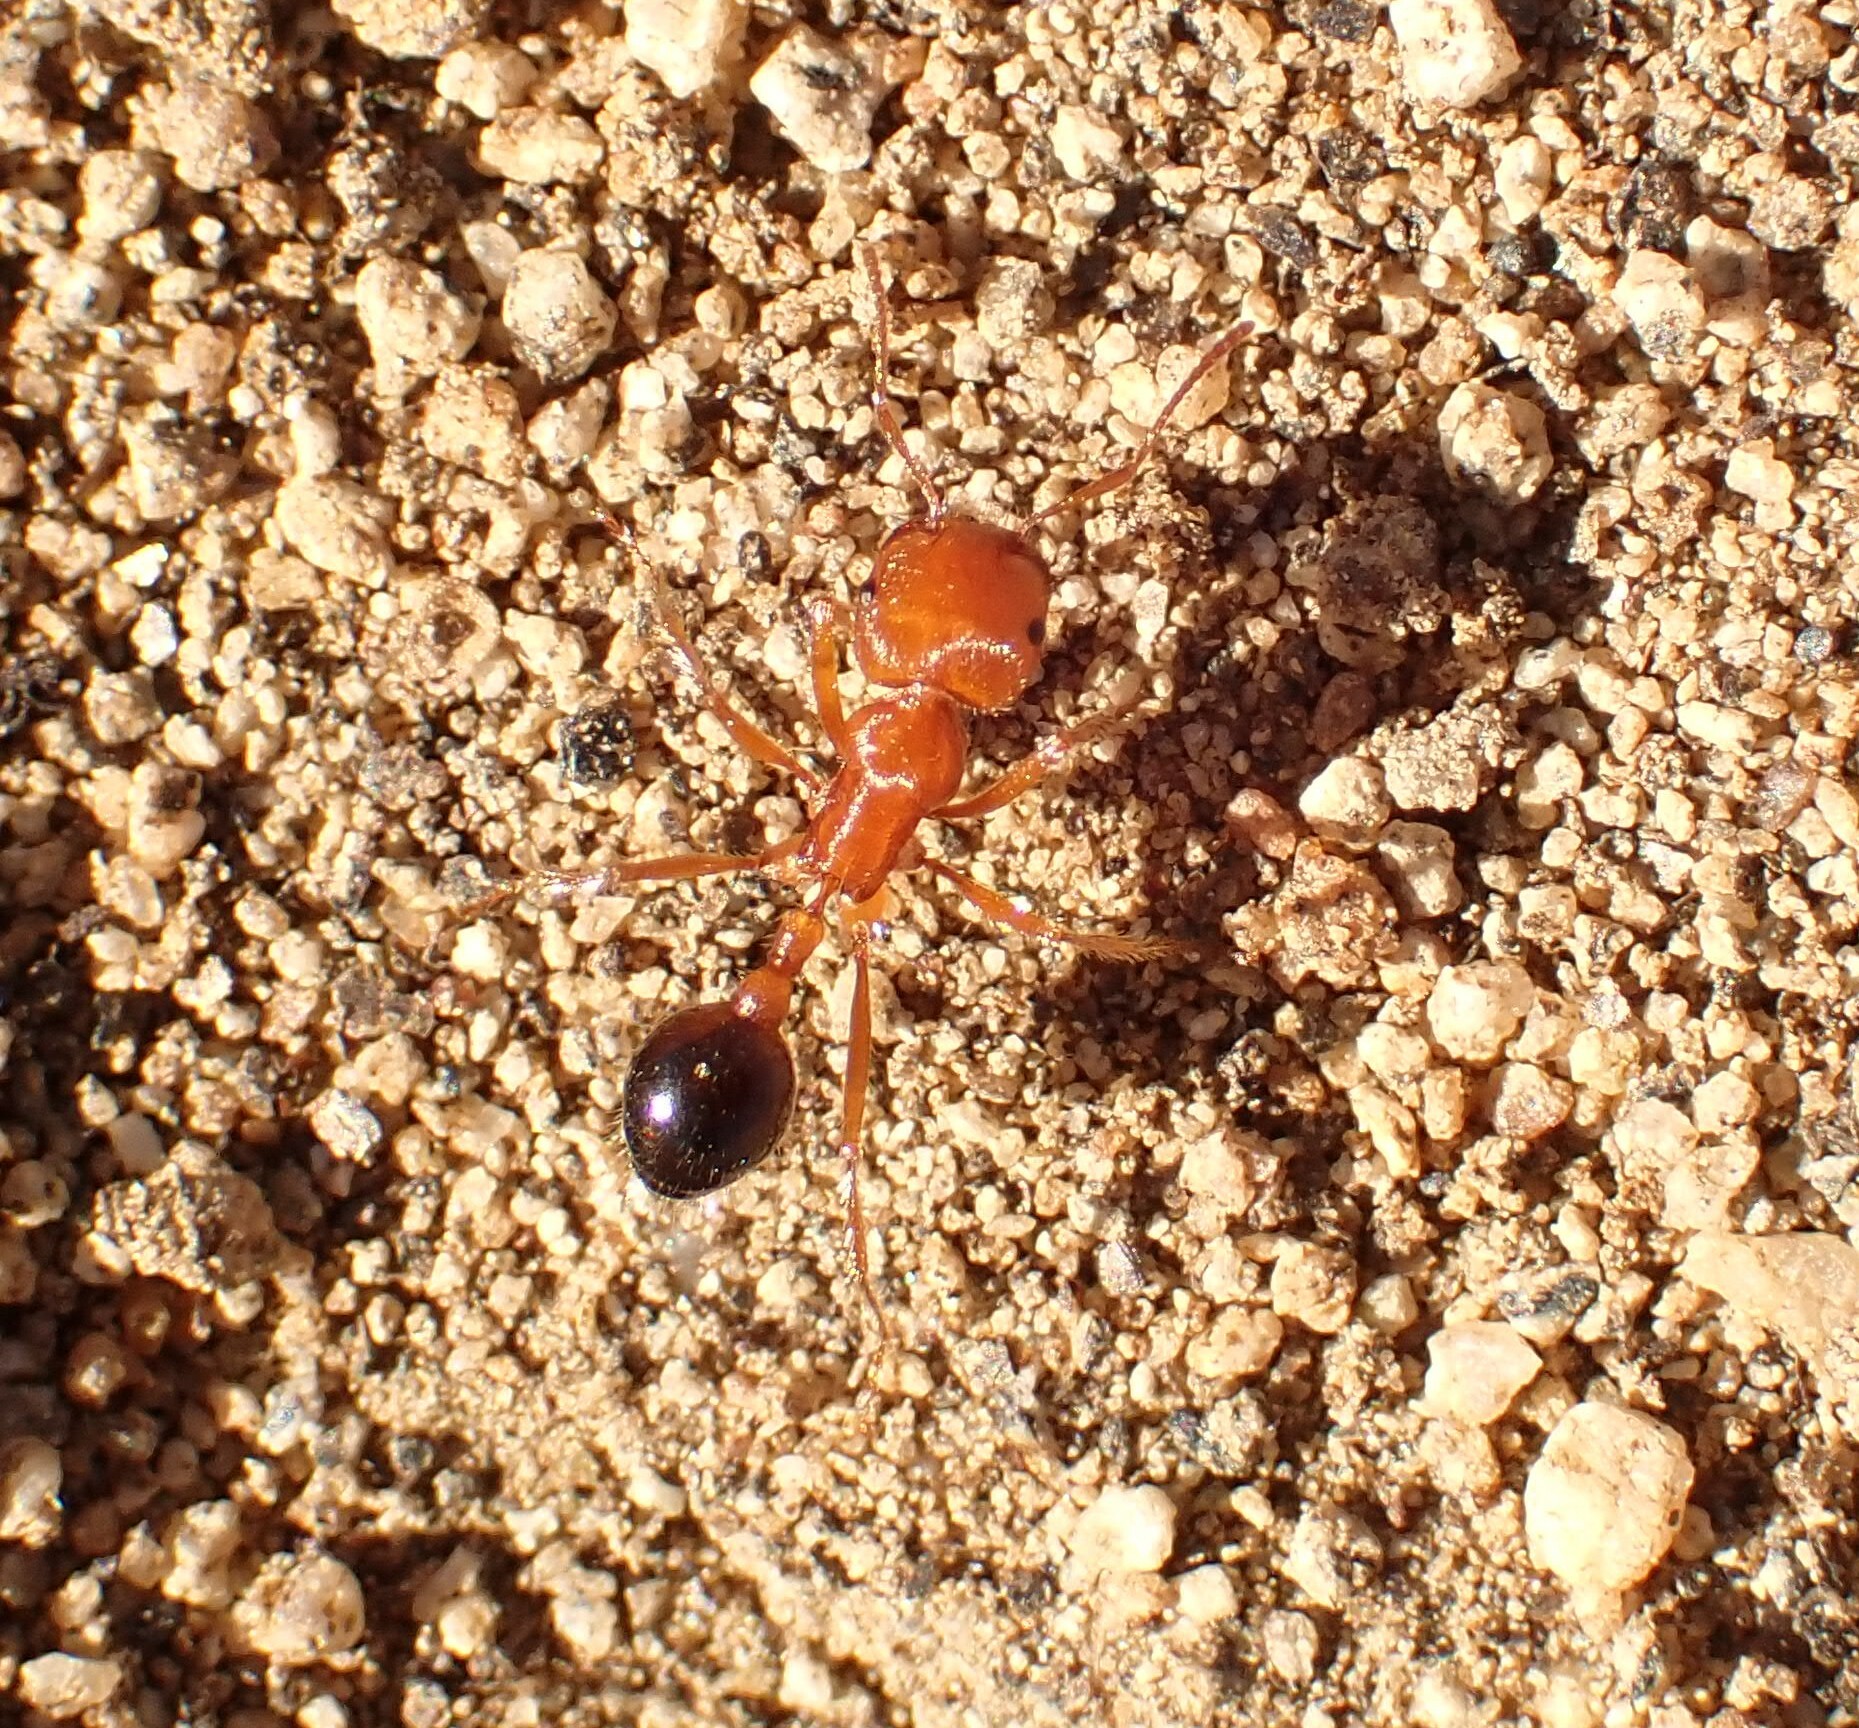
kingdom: Animalia
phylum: Arthropoda
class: Insecta
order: Hymenoptera
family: Formicidae
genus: Pogonomyrmex
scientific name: Pogonomyrmex californicus
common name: California harvester ant
